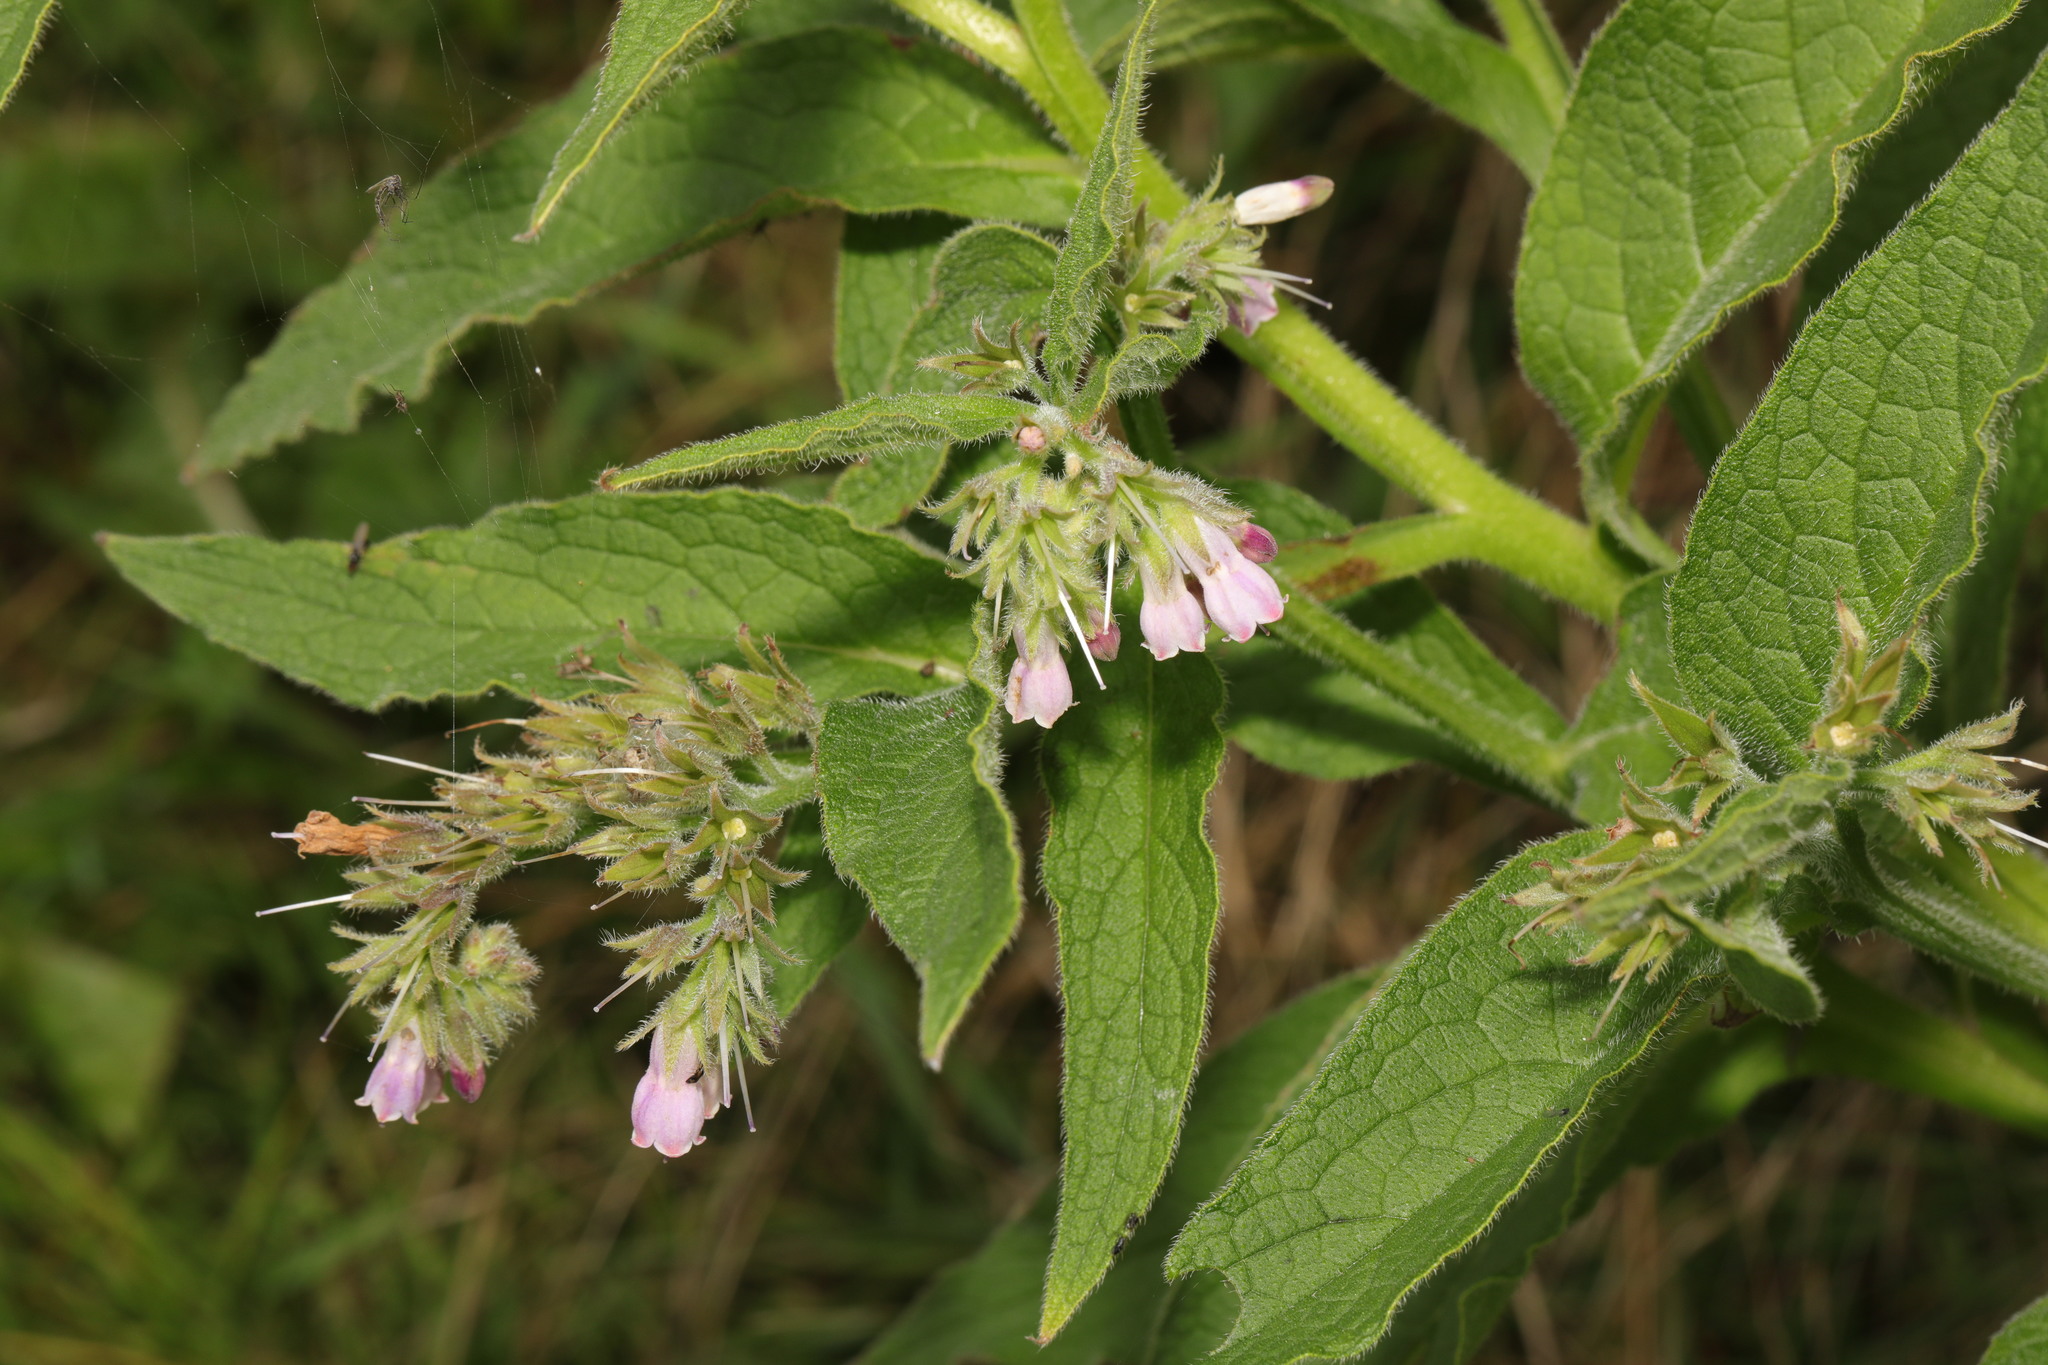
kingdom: Plantae
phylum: Tracheophyta
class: Magnoliopsida
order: Boraginales
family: Boraginaceae
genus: Symphytum
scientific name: Symphytum officinale
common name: Common comfrey
